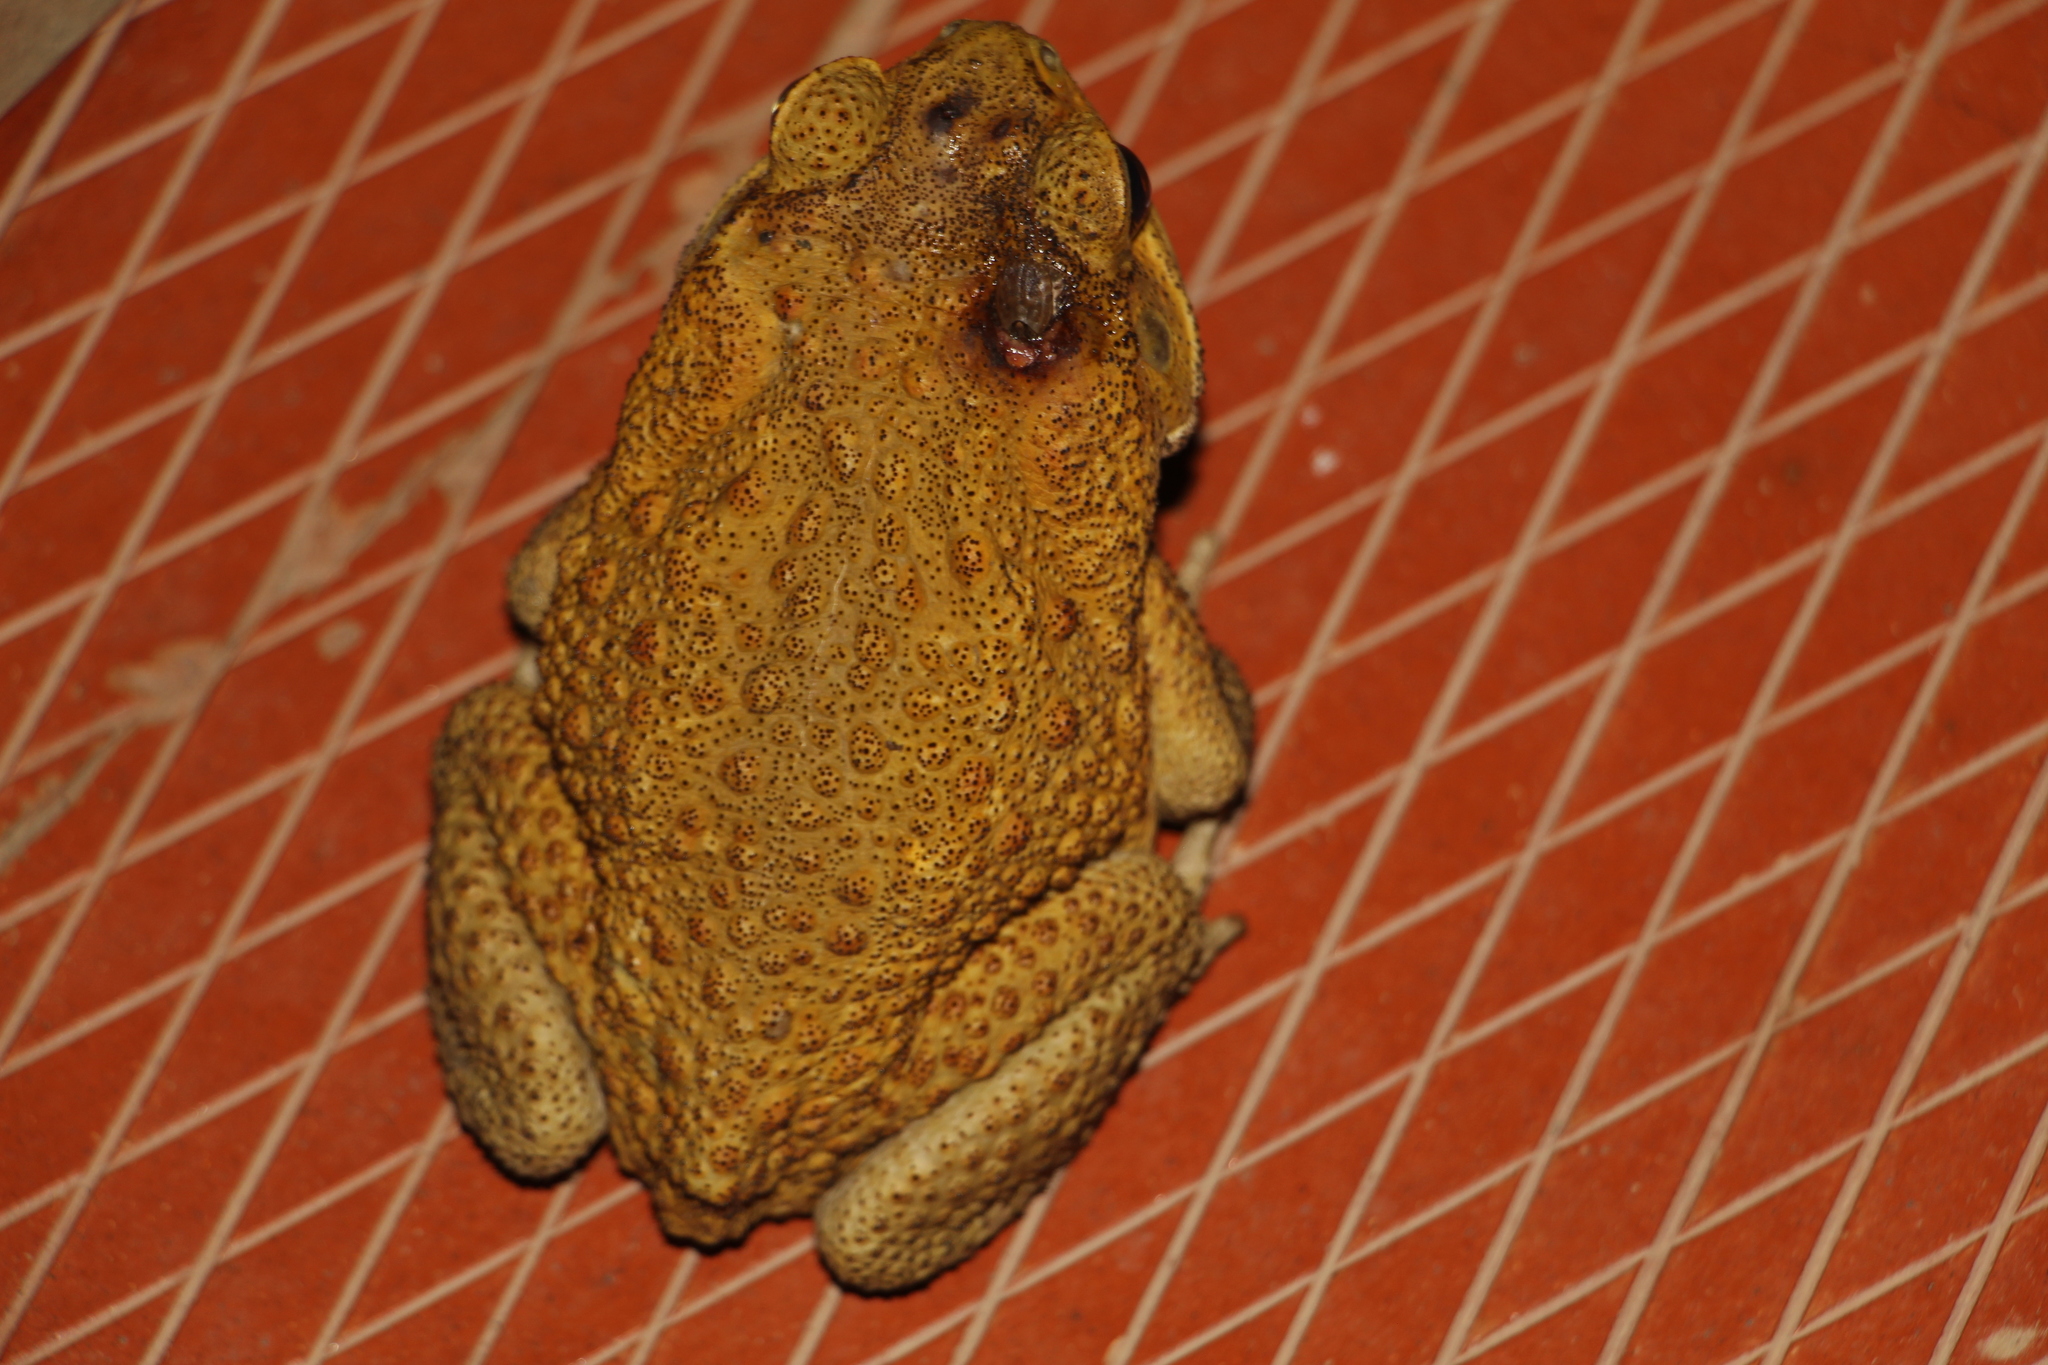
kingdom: Animalia
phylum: Chordata
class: Amphibia
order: Anura
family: Bufonidae
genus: Rhinella
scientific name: Rhinella marina
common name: Cane toad
